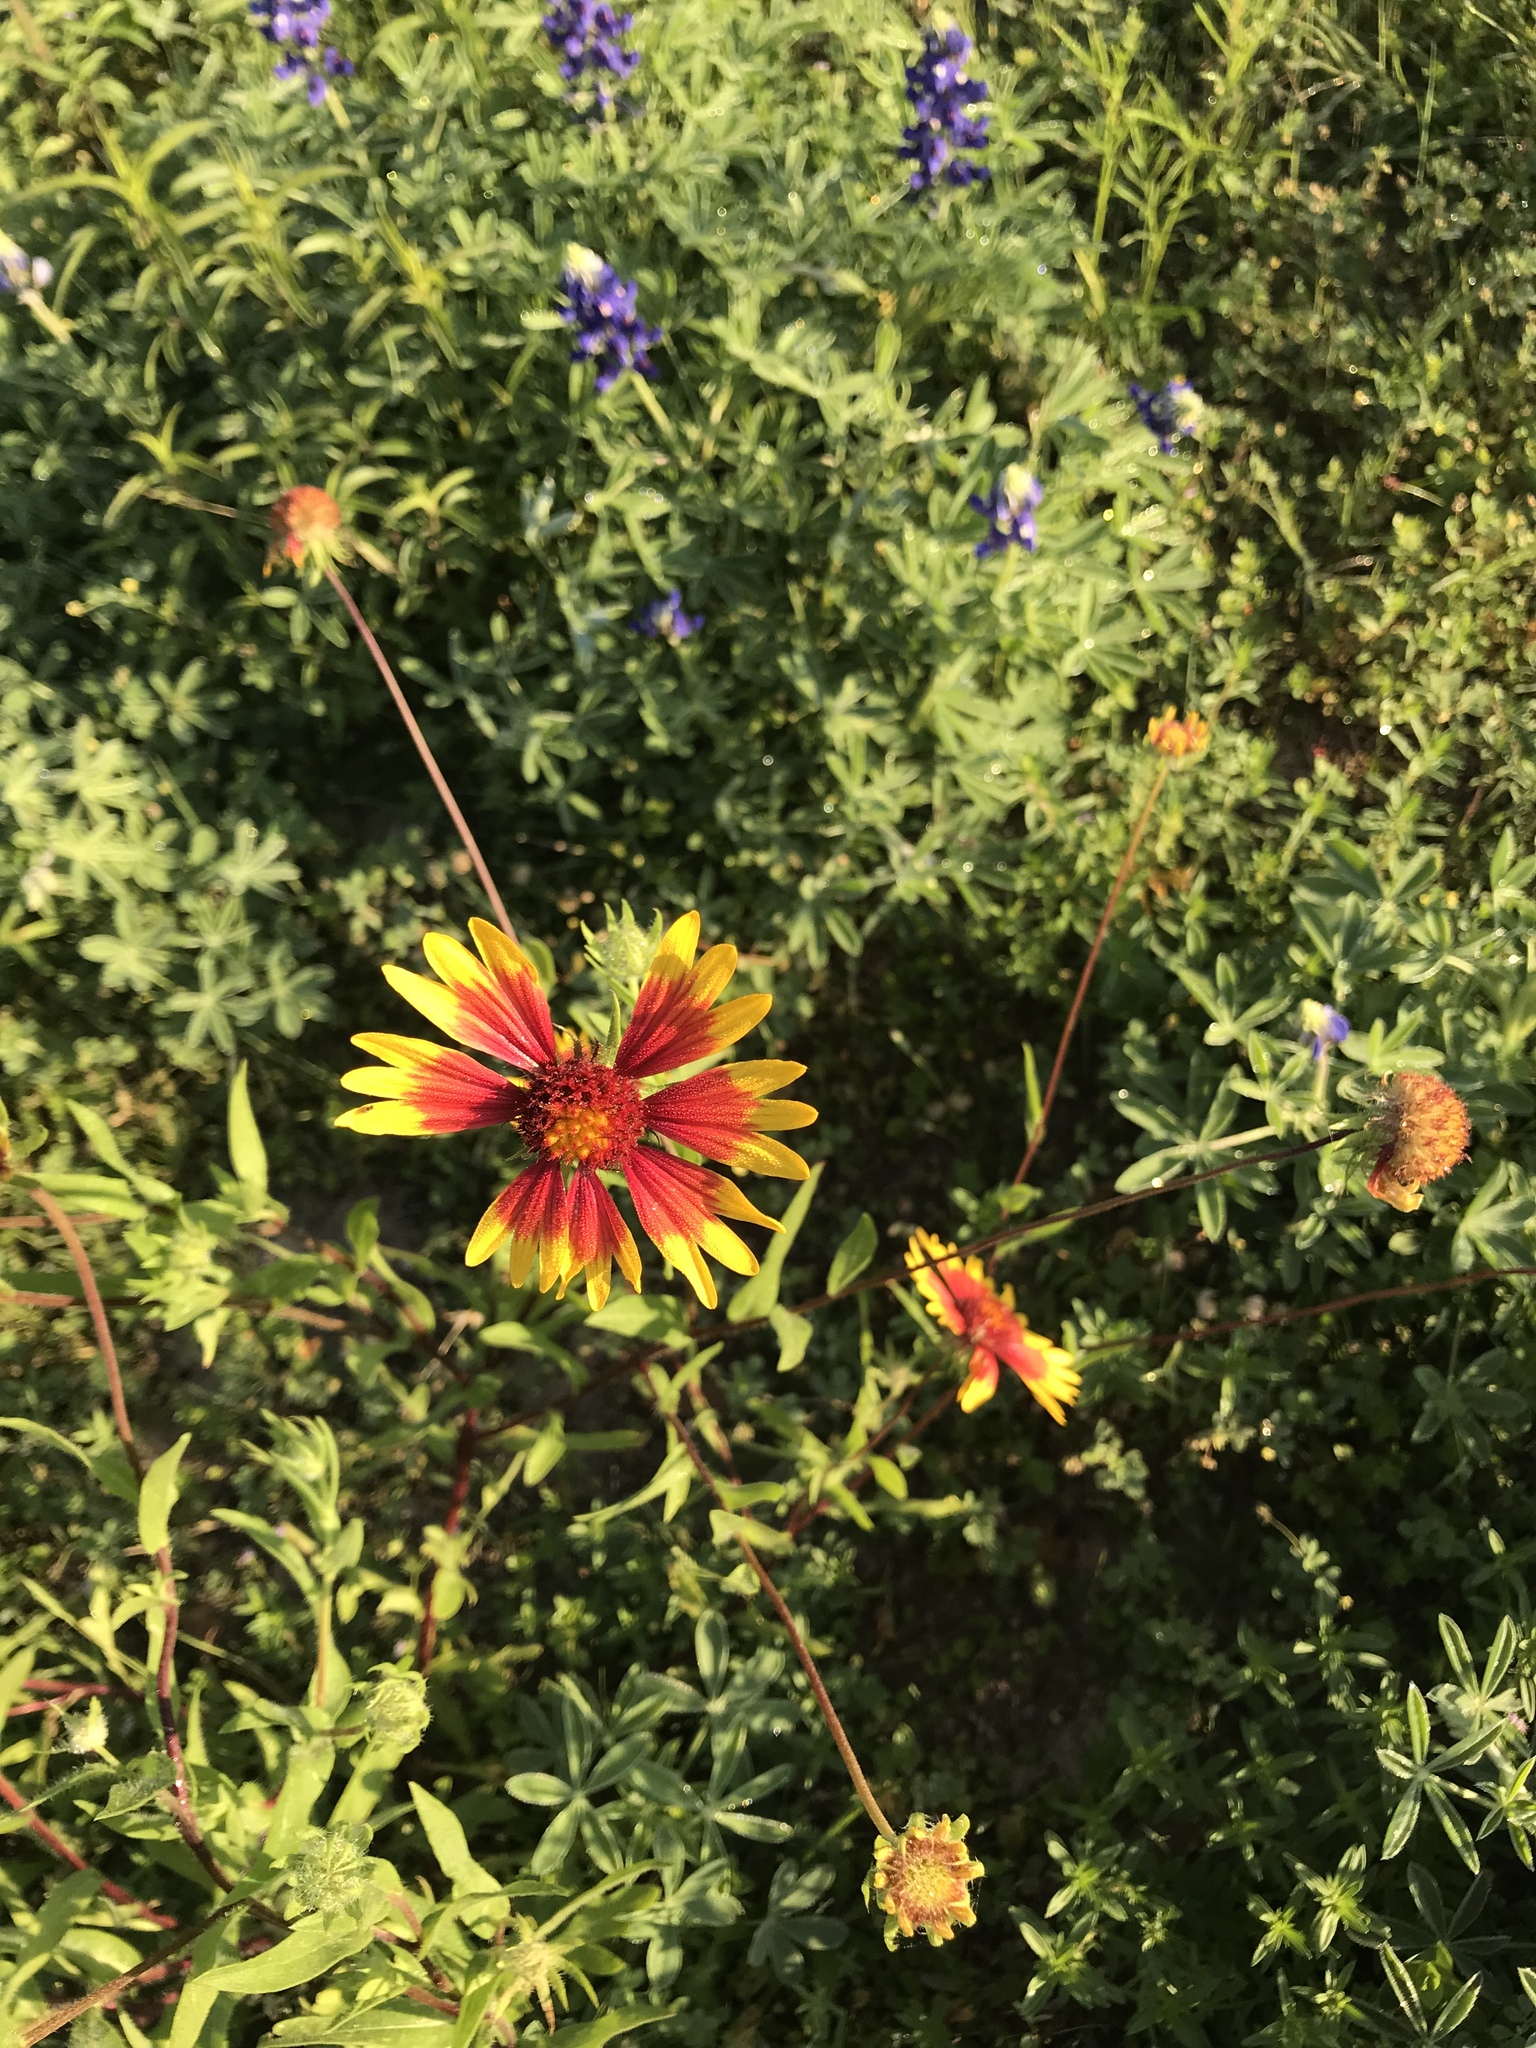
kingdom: Plantae
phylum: Tracheophyta
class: Magnoliopsida
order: Asterales
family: Asteraceae
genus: Gaillardia
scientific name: Gaillardia pulchella
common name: Firewheel
